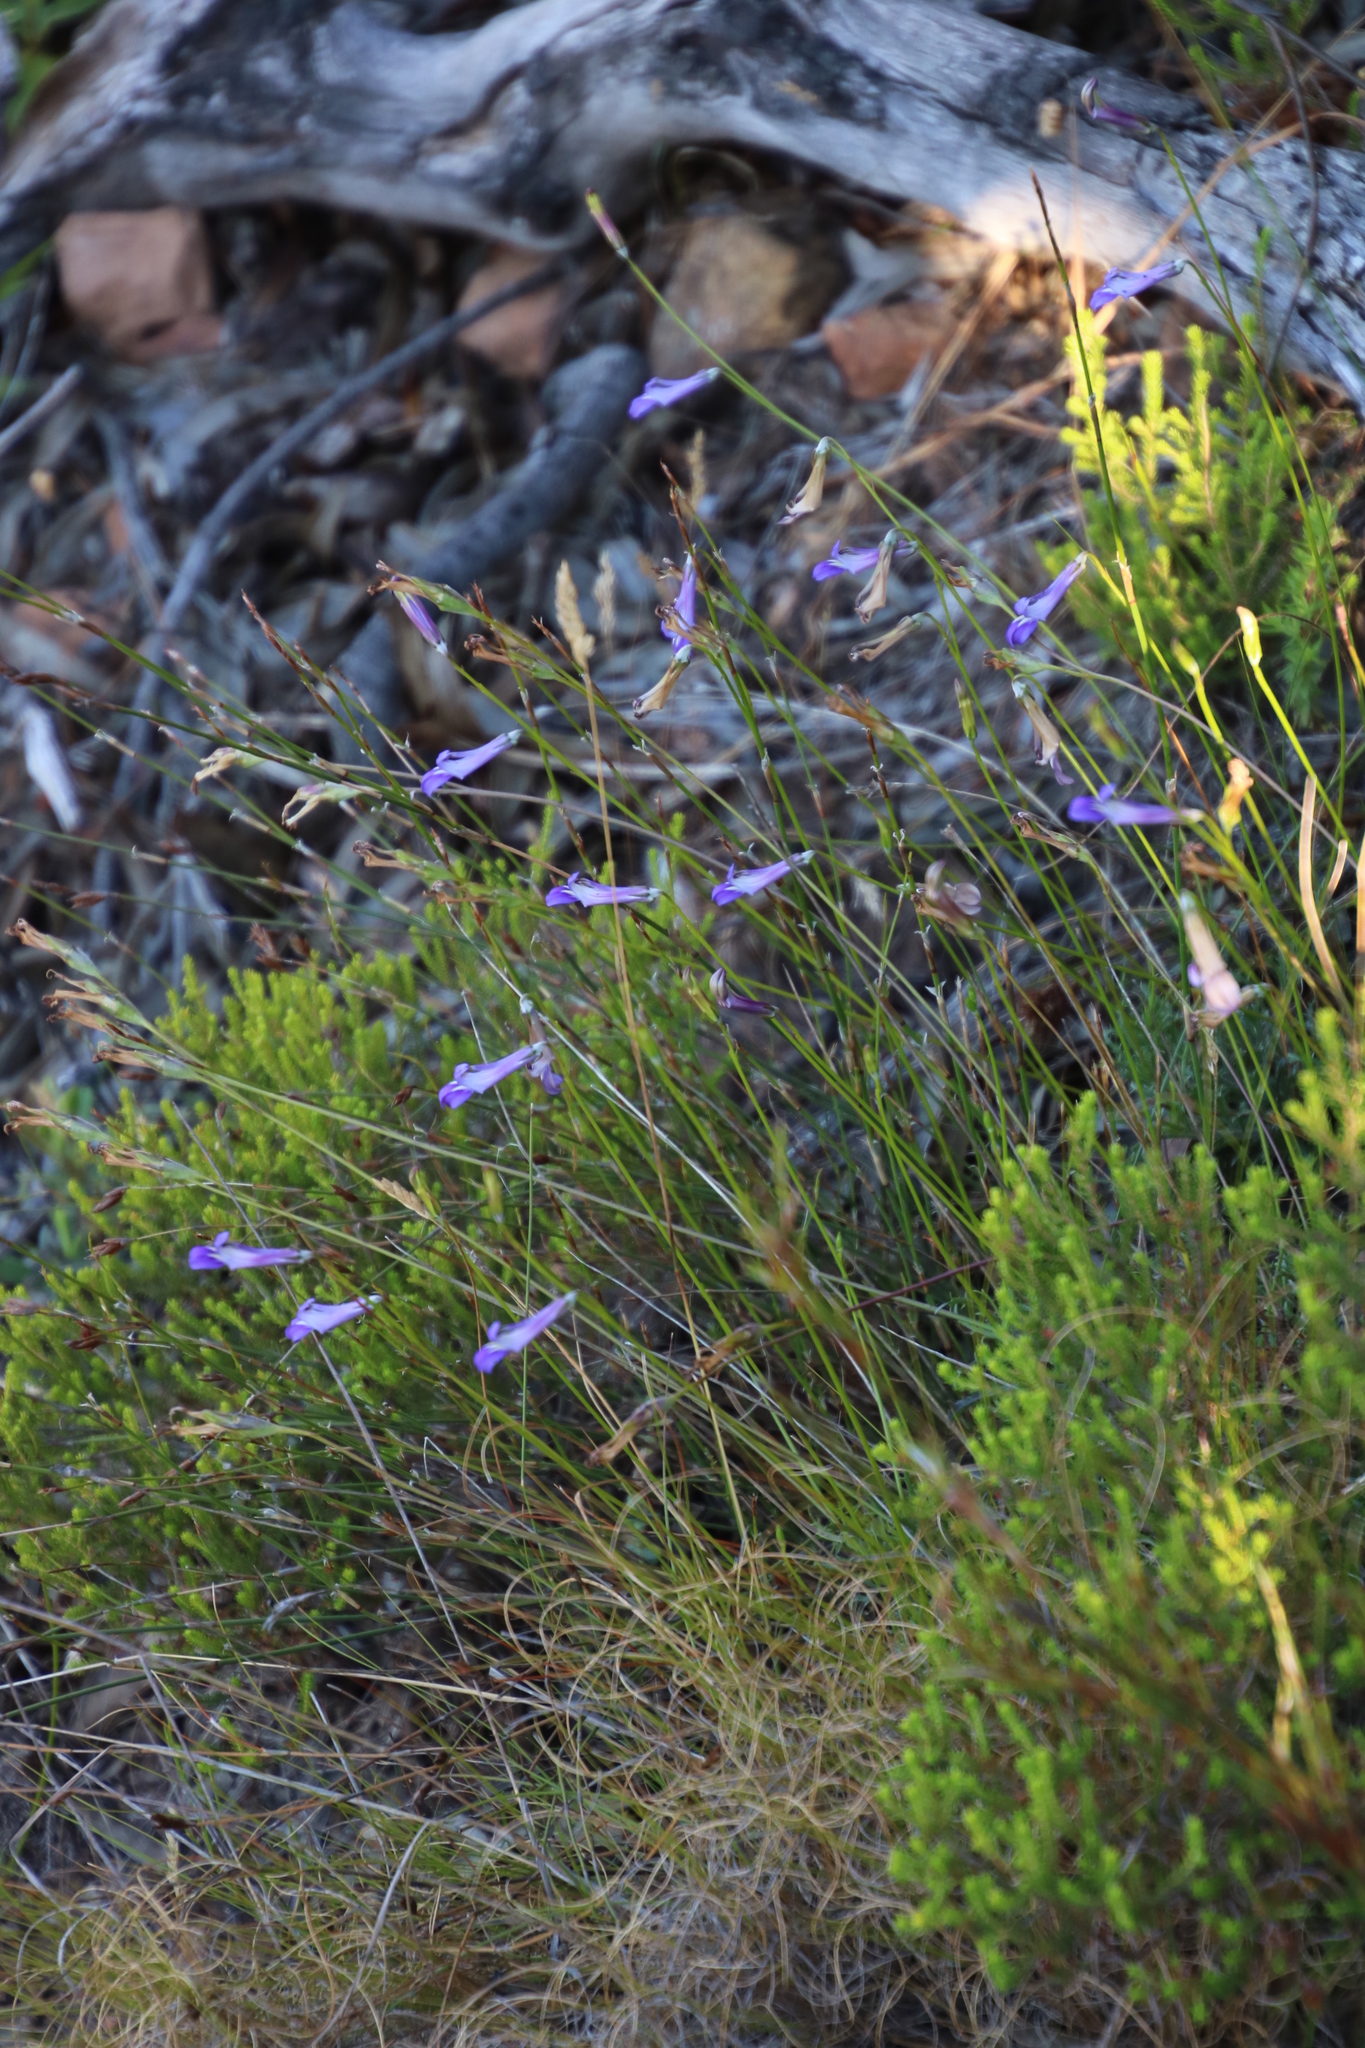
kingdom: Plantae
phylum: Tracheophyta
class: Magnoliopsida
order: Asterales
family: Campanulaceae
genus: Lobelia
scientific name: Lobelia coronopifolia
